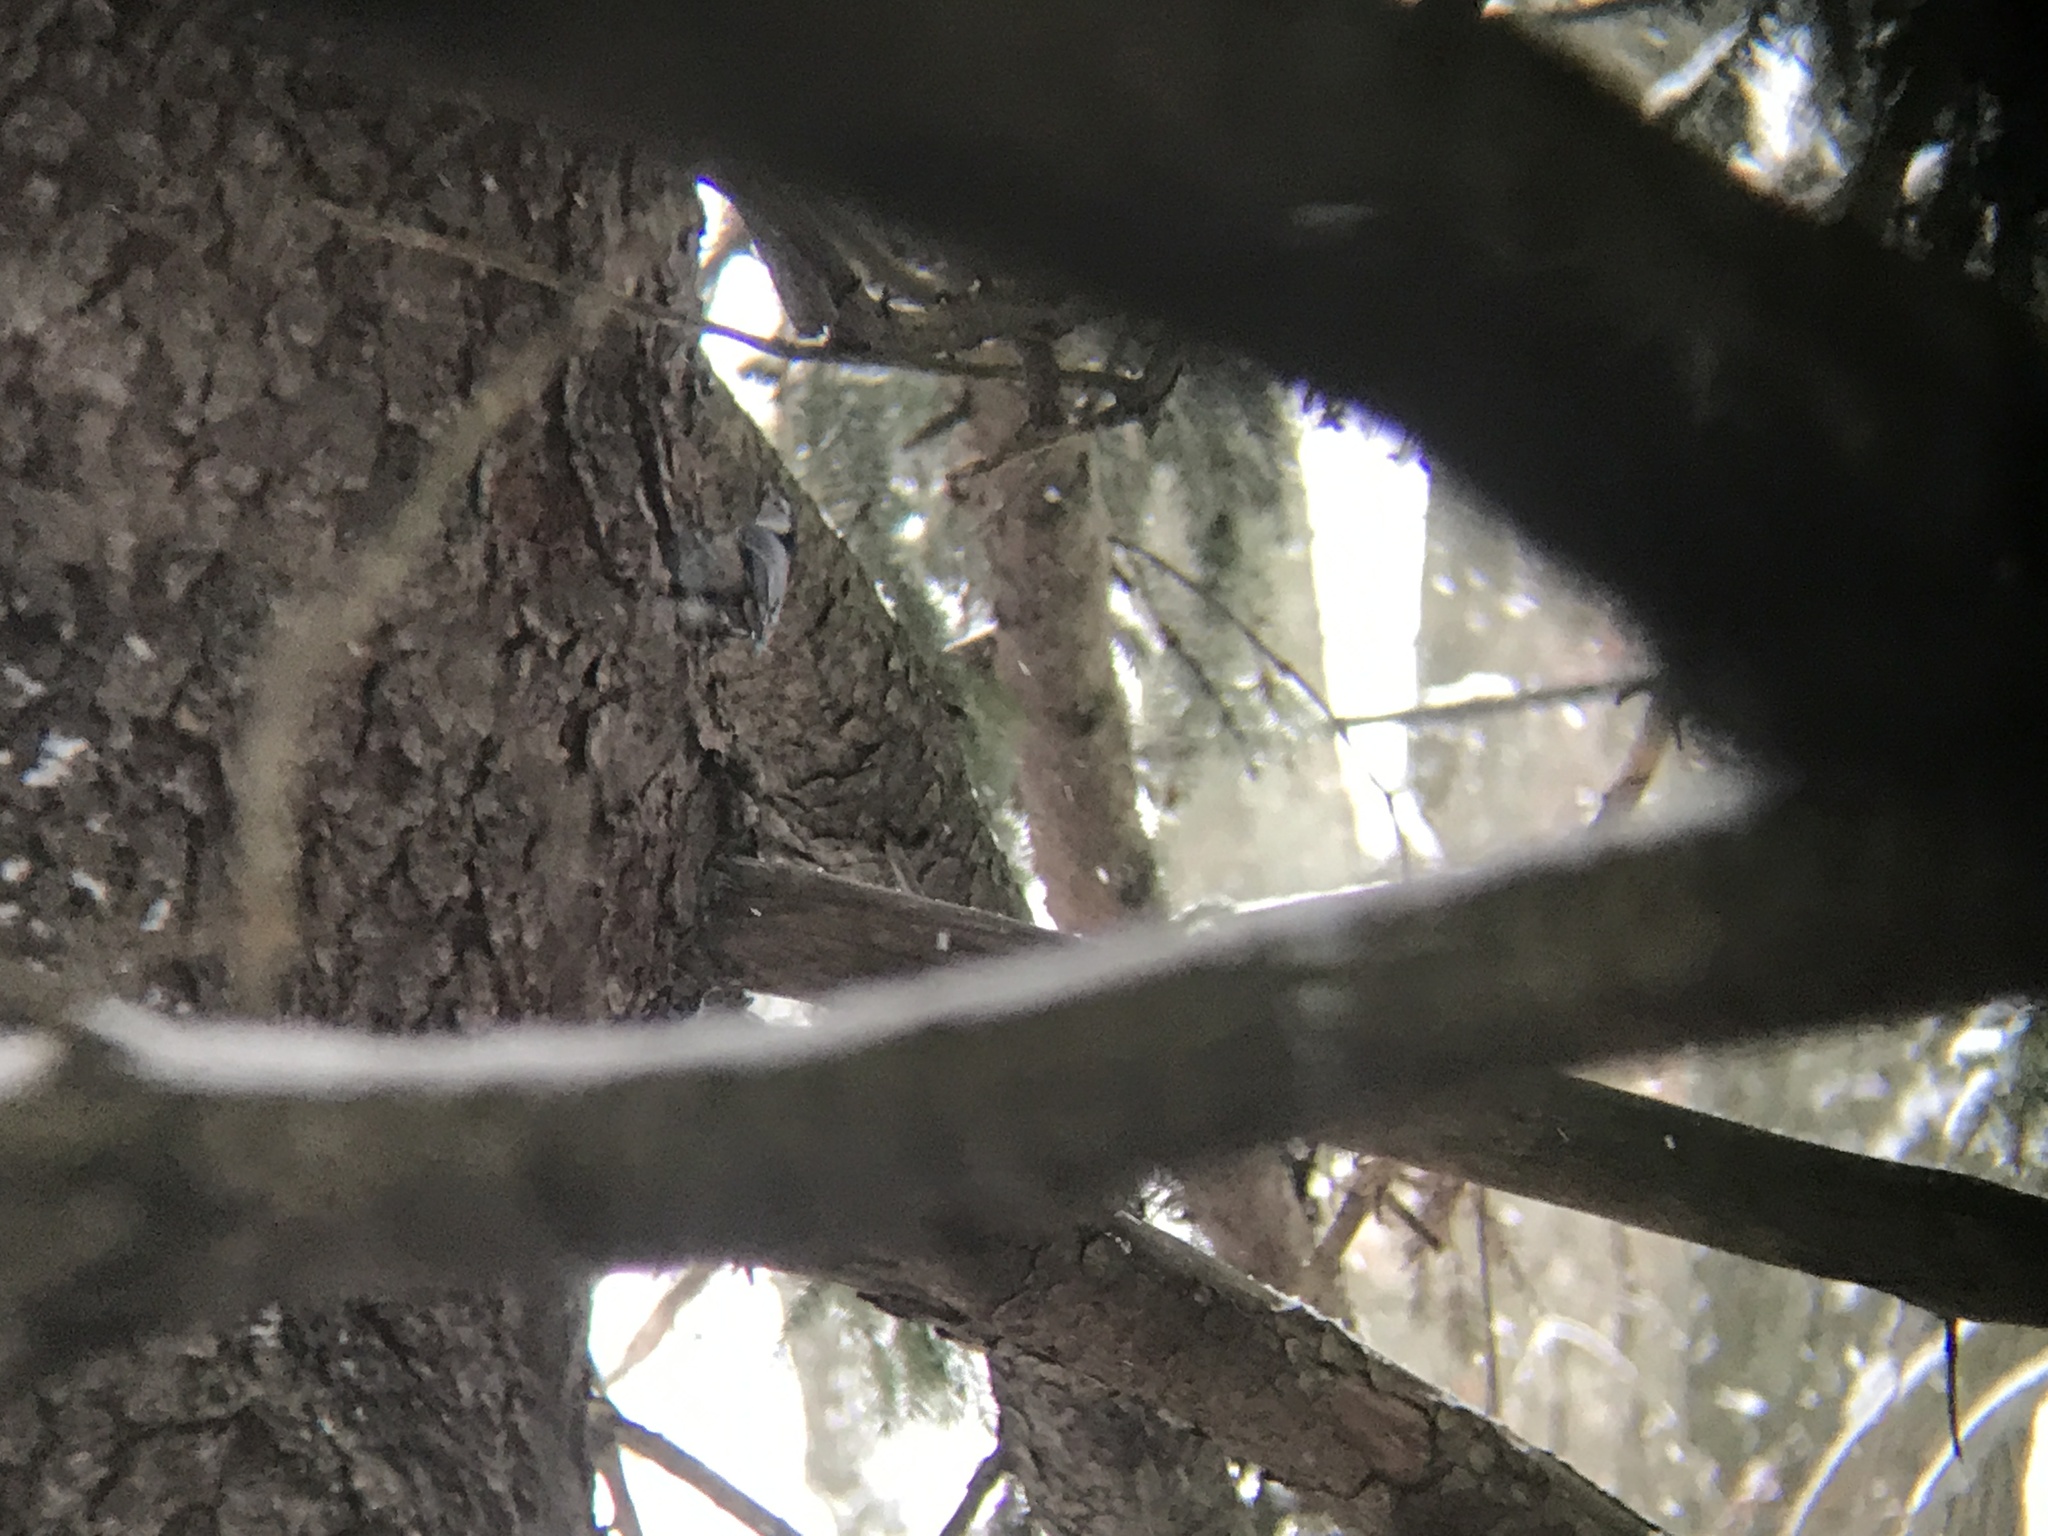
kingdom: Animalia
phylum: Chordata
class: Aves
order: Passeriformes
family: Sittidae
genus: Sitta
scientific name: Sitta carolinensis
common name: White-breasted nuthatch
